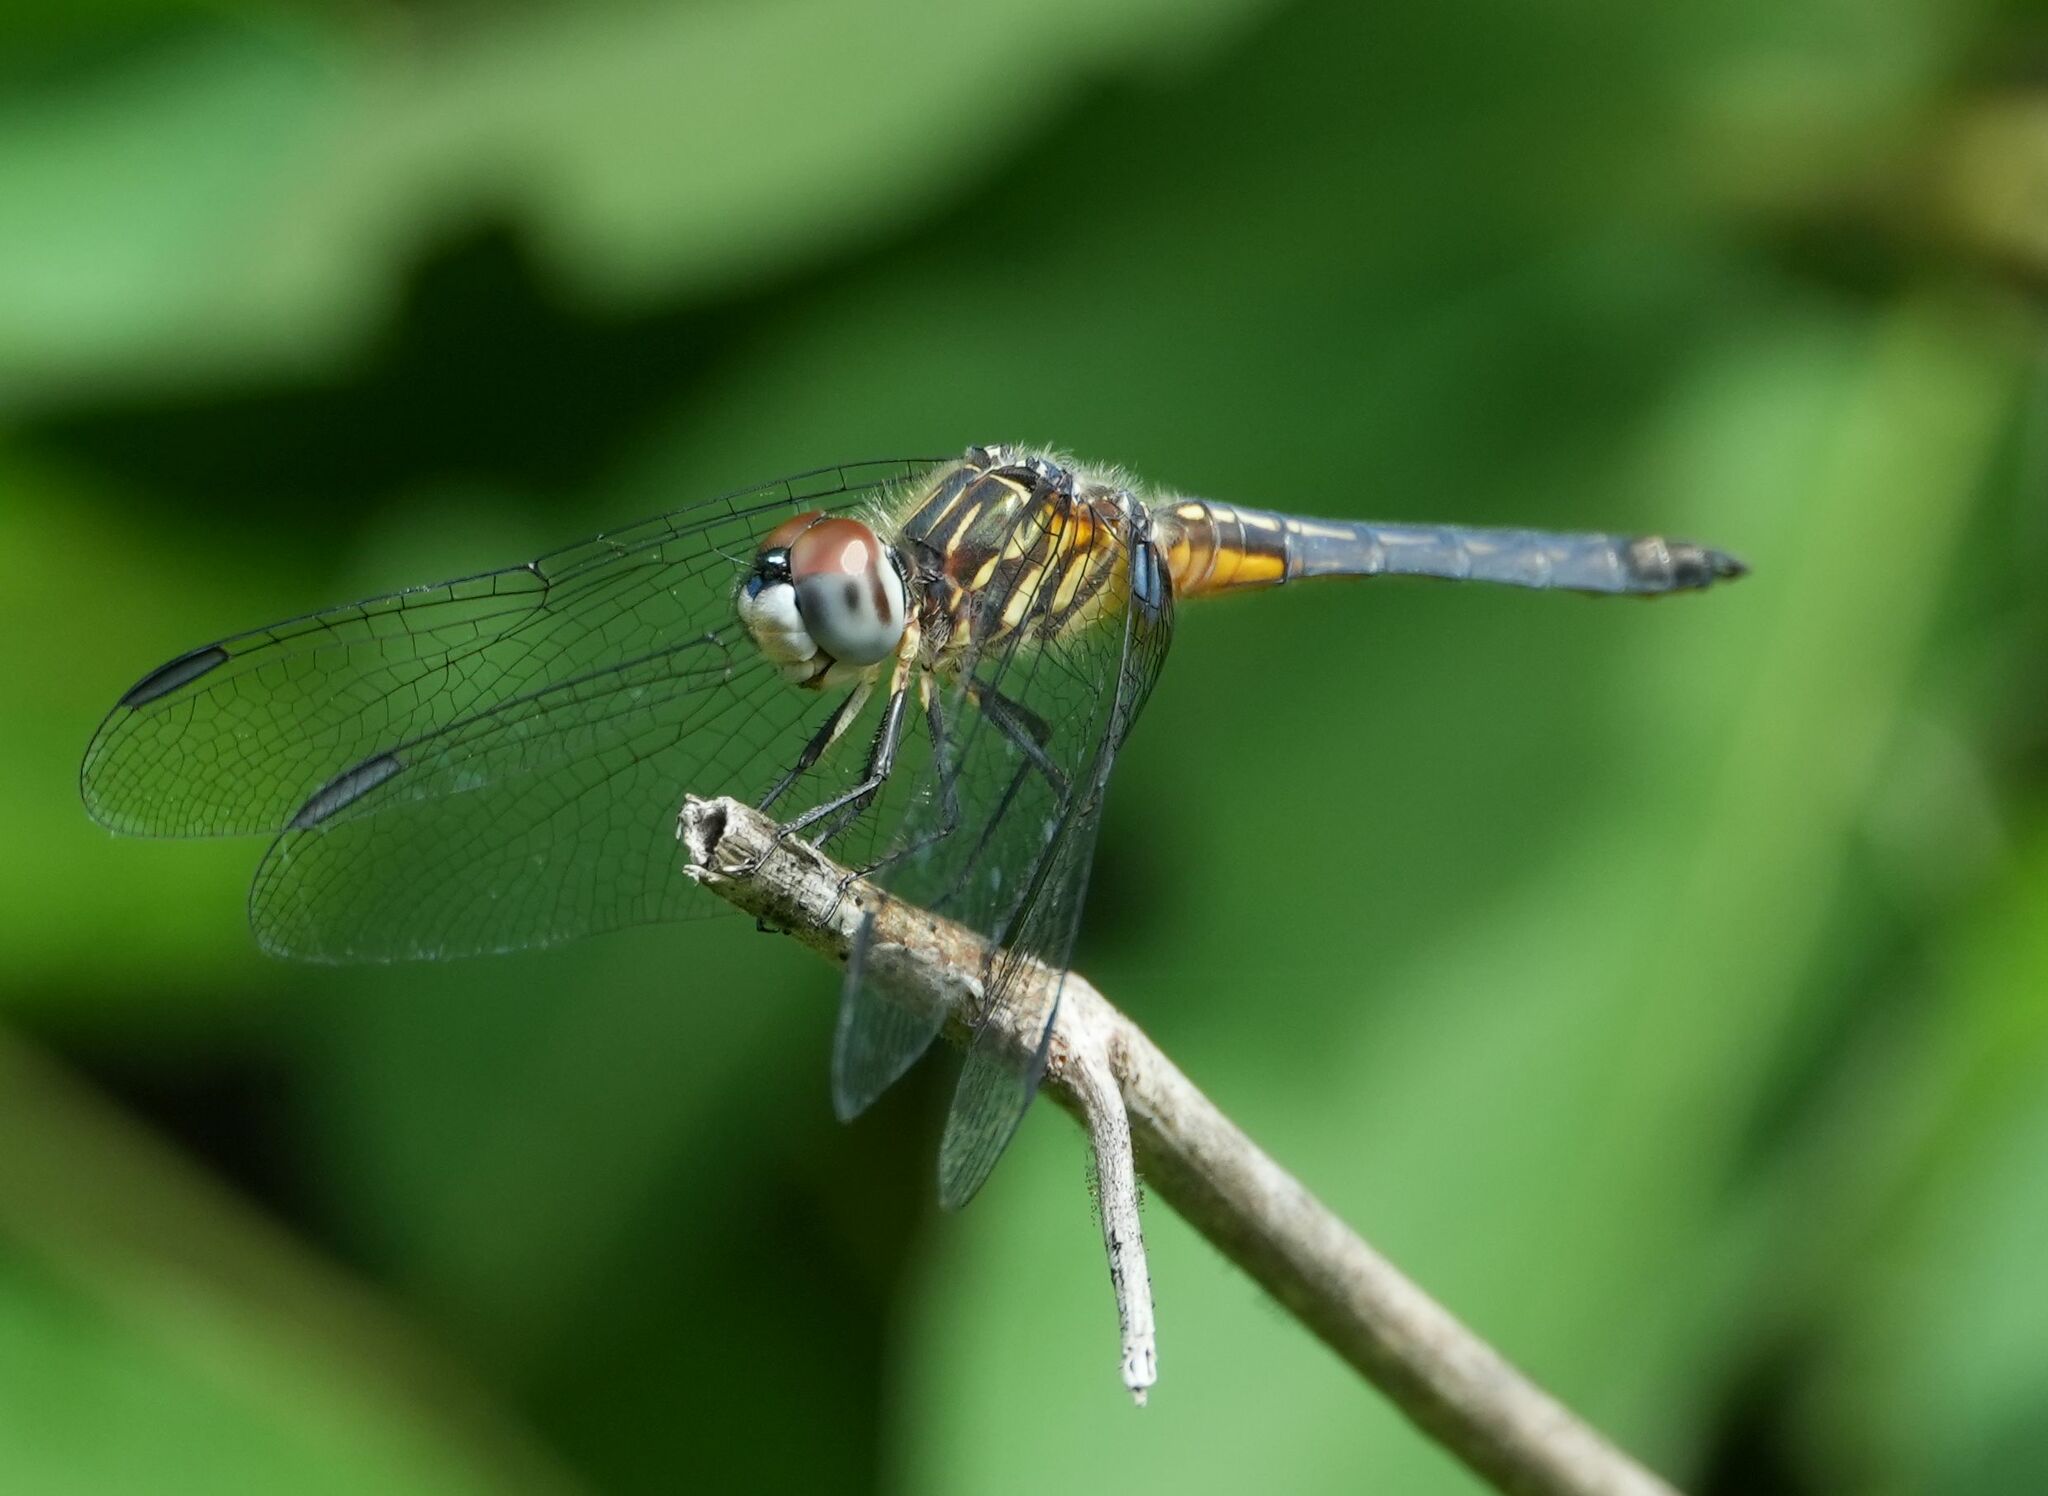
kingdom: Animalia
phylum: Arthropoda
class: Insecta
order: Odonata
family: Libellulidae
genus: Pachydiplax
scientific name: Pachydiplax longipennis
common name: Blue dasher
